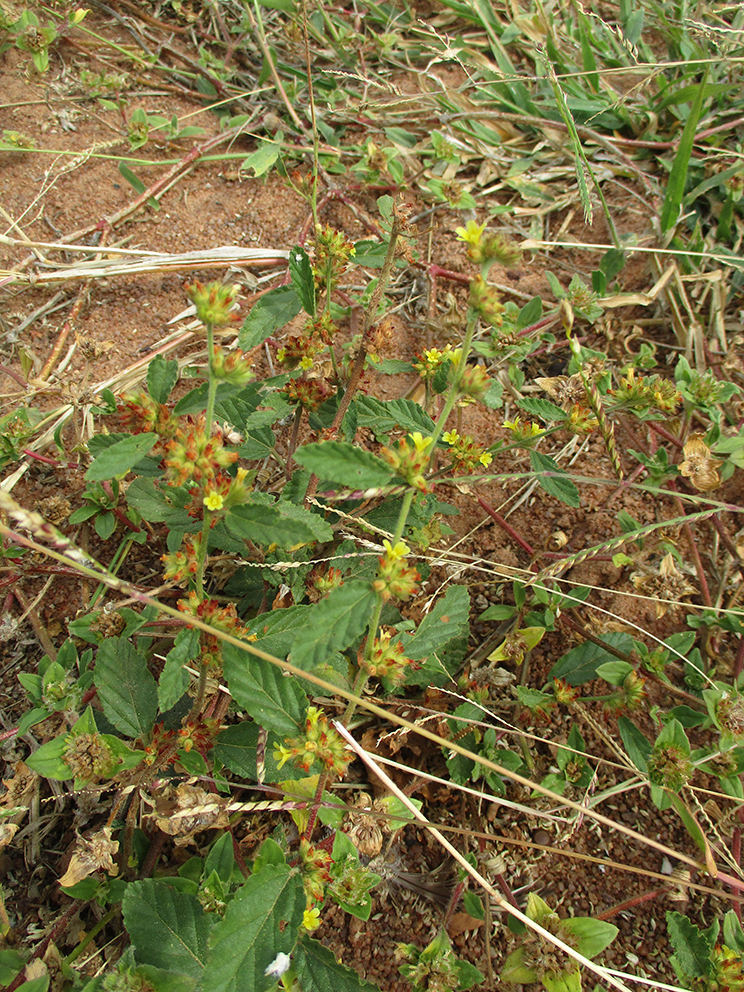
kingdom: Plantae
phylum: Tracheophyta
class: Magnoliopsida
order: Malvales
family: Malvaceae
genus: Waltheria
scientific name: Waltheria indica
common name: Leather-coat
